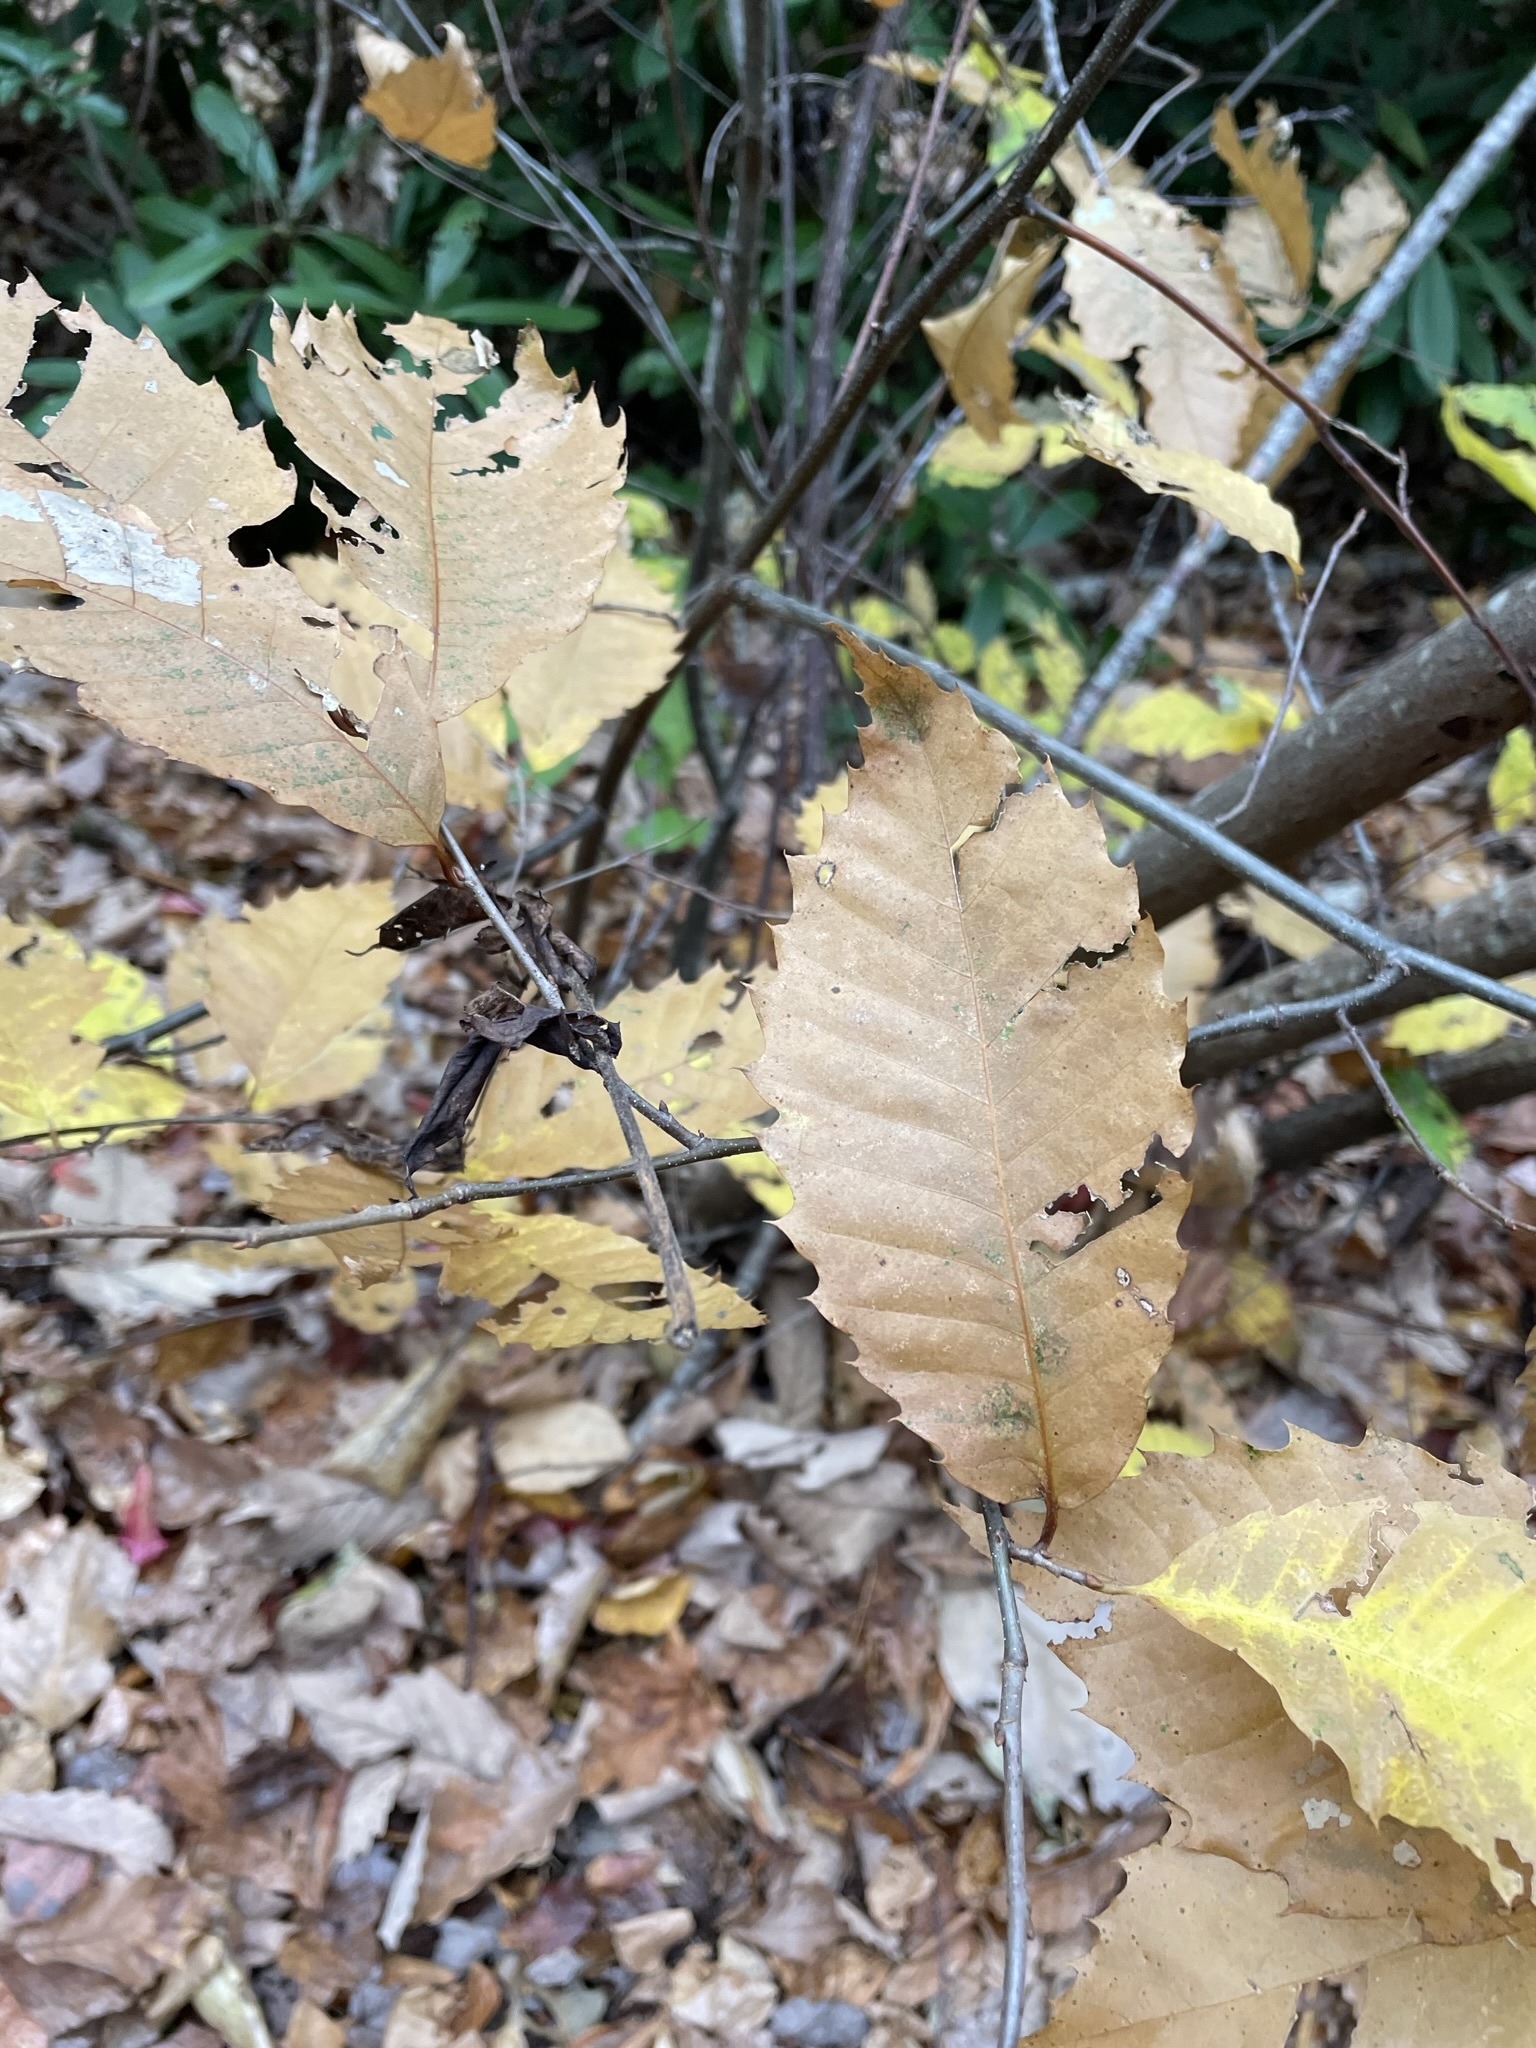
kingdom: Plantae
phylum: Tracheophyta
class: Magnoliopsida
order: Fagales
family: Fagaceae
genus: Castanea
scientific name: Castanea dentata
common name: American chestnut
